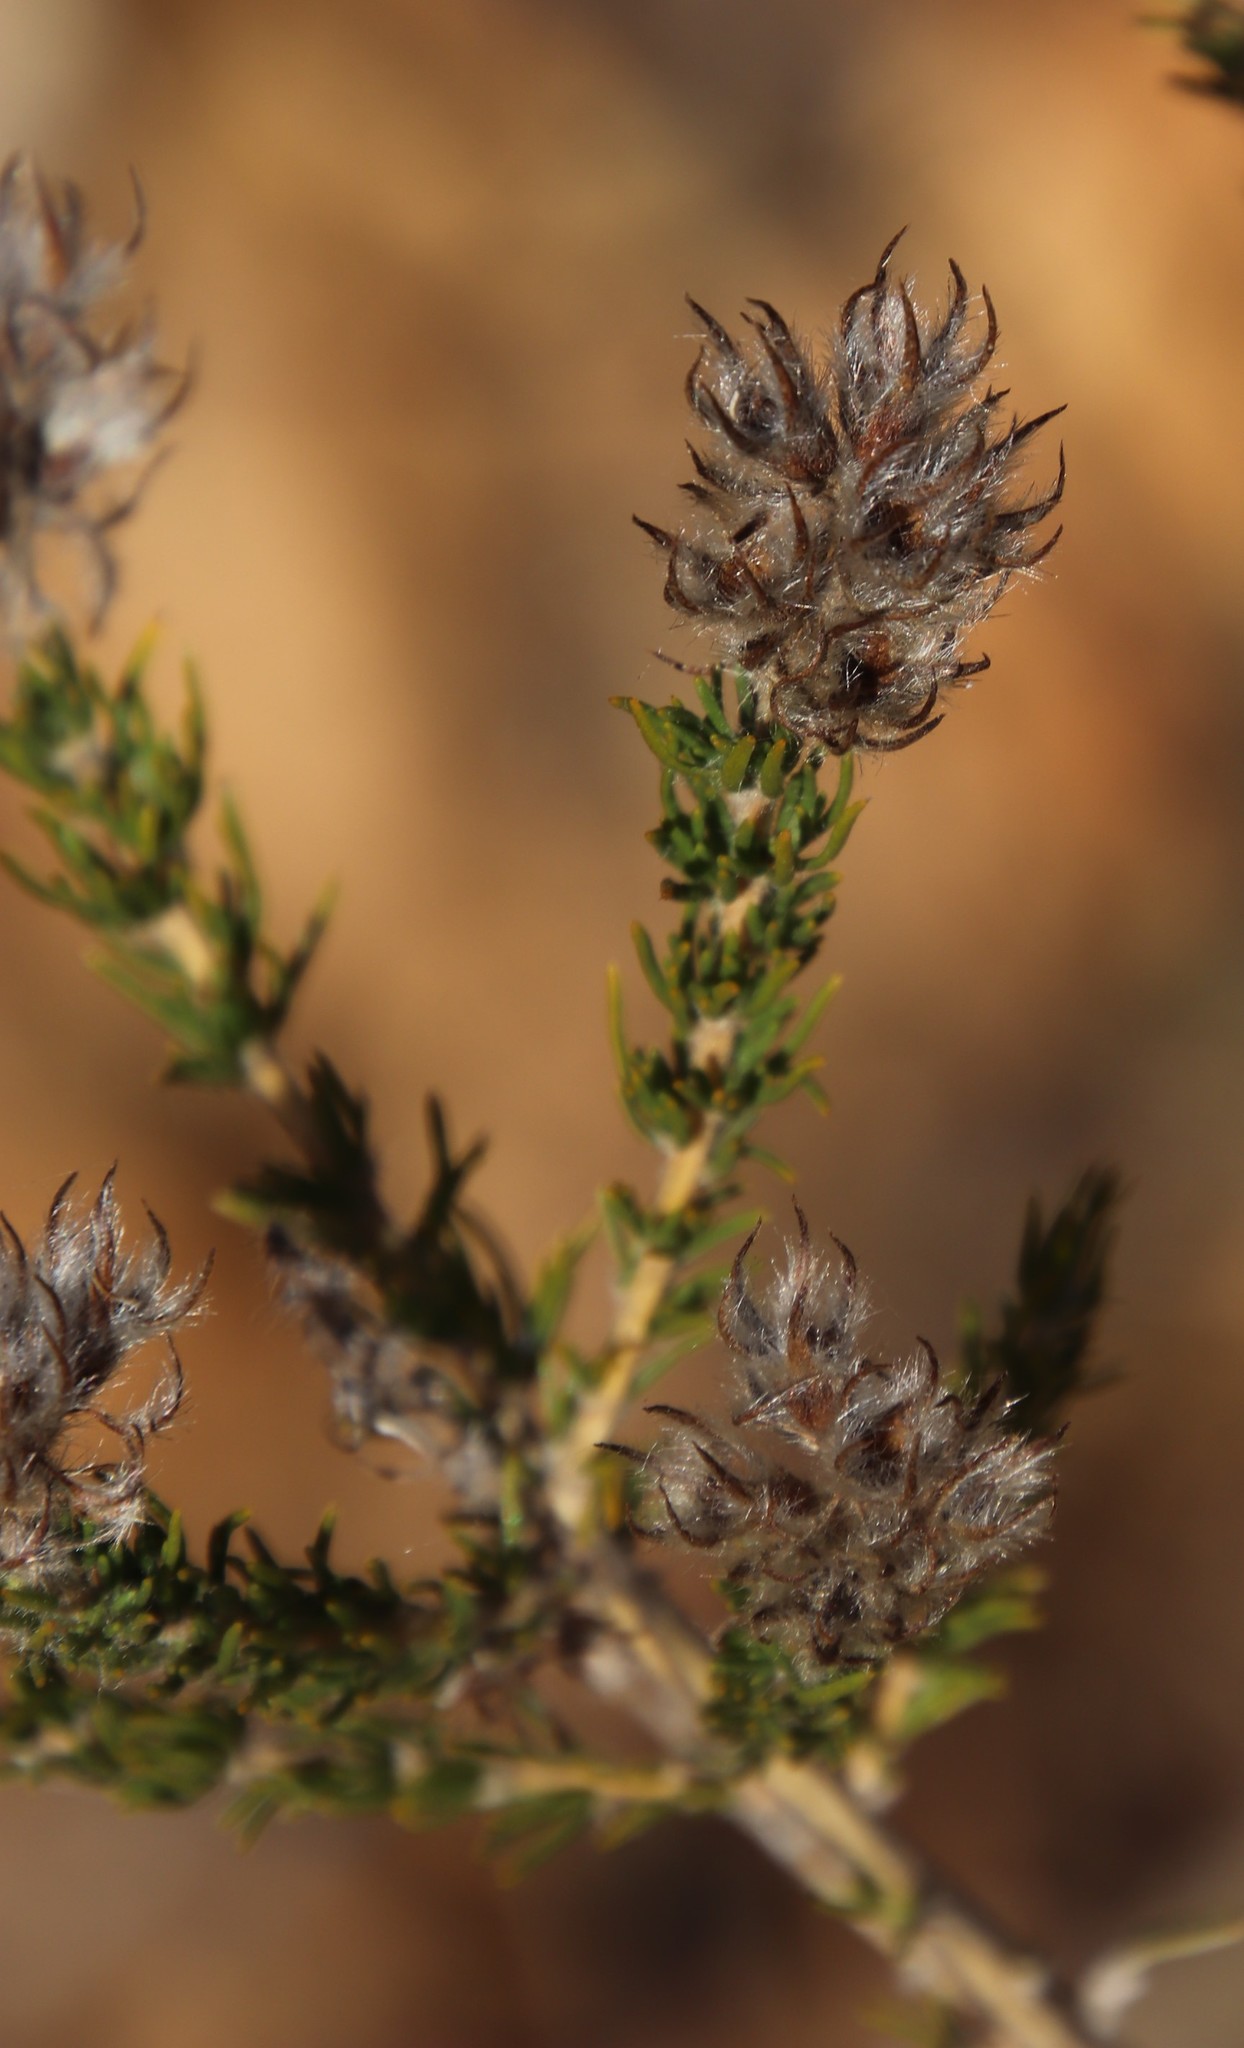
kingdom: Plantae
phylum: Tracheophyta
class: Magnoliopsida
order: Fabales
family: Fabaceae
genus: Aspalathus
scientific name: Aspalathus cephalotes
